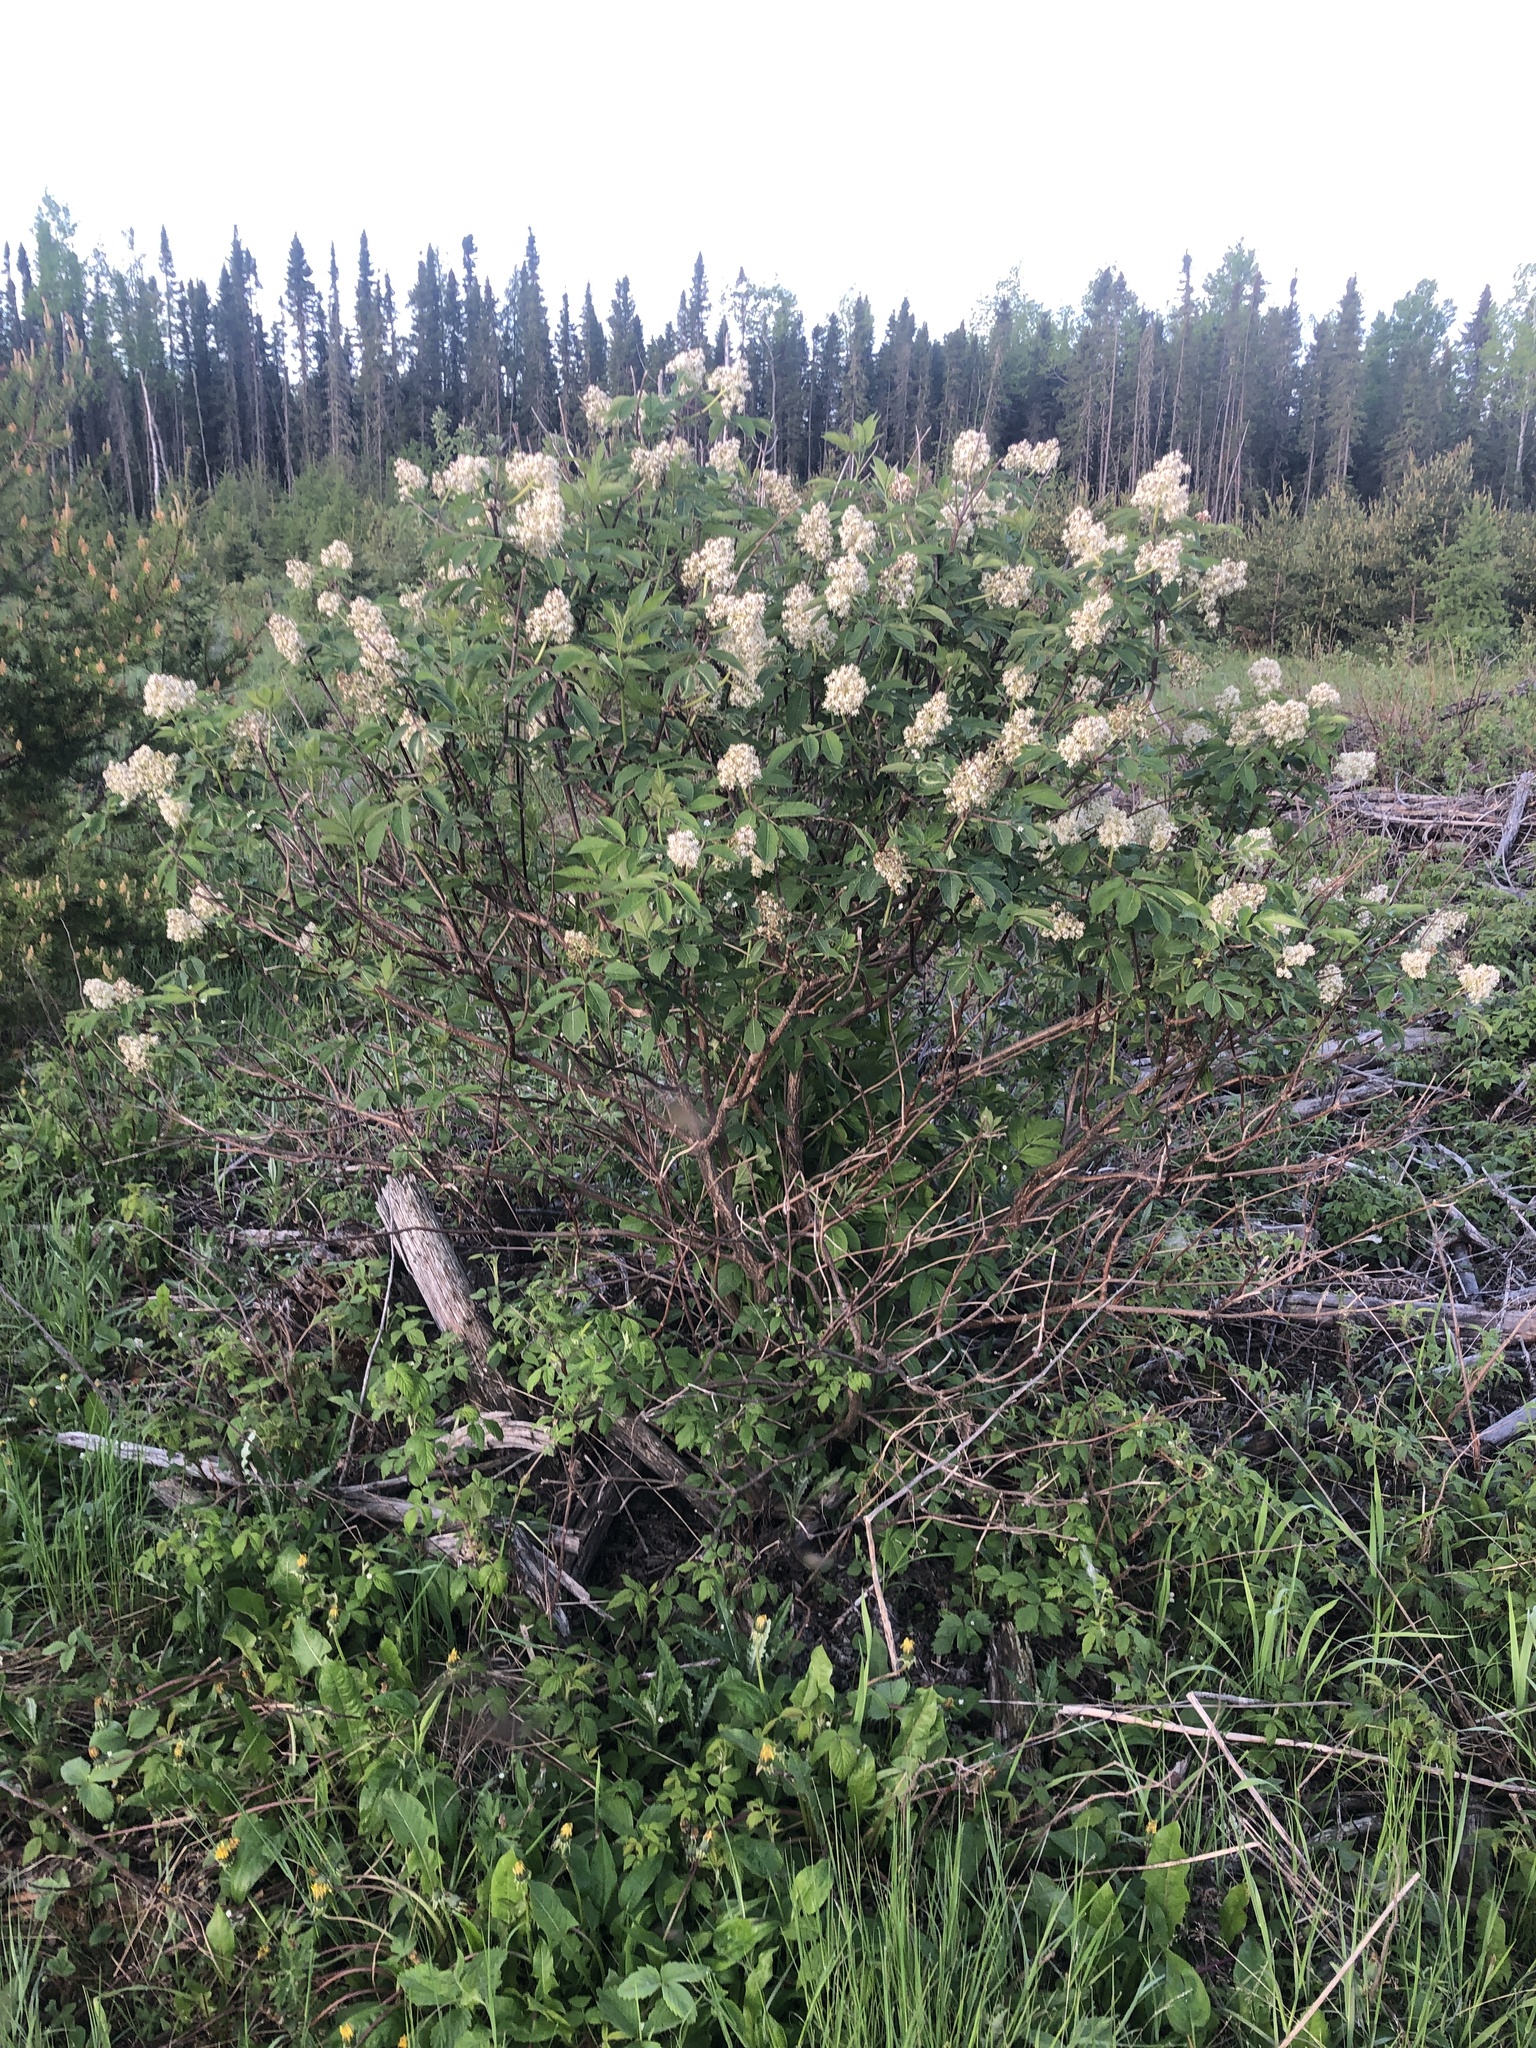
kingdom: Plantae
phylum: Tracheophyta
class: Magnoliopsida
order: Dipsacales
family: Viburnaceae
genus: Sambucus
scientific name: Sambucus racemosa
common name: Red-berried elder
